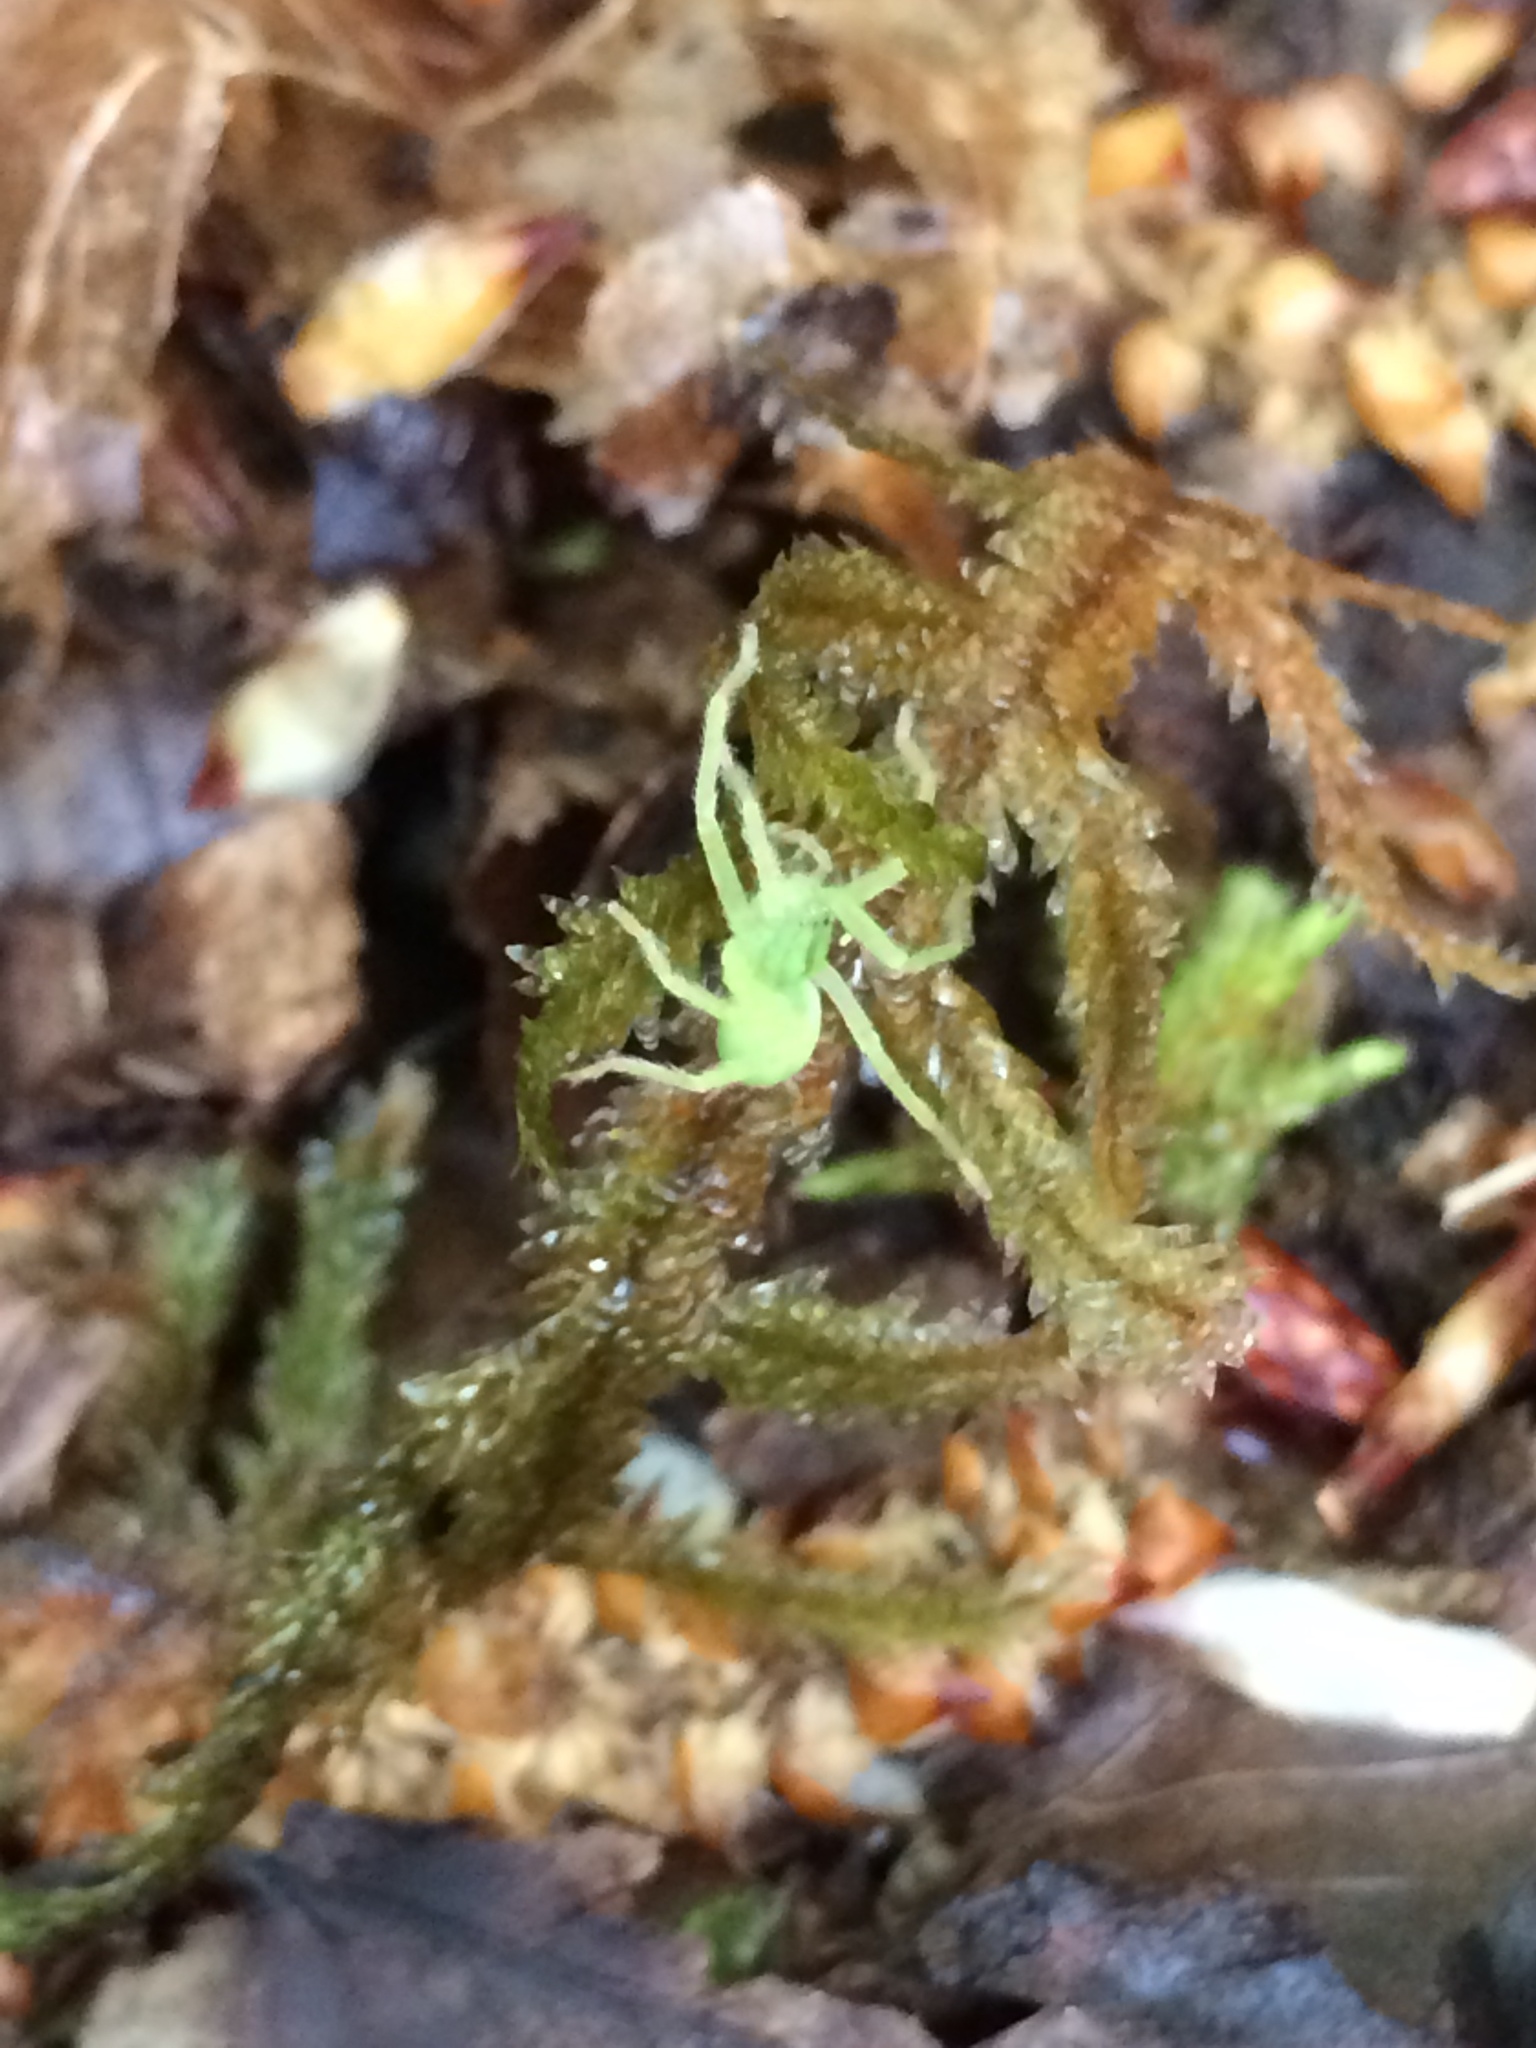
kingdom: Animalia
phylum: Arthropoda
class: Arachnida
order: Araneae
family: Sparassidae
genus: Micrommata
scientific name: Micrommata virescens
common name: Green spider
